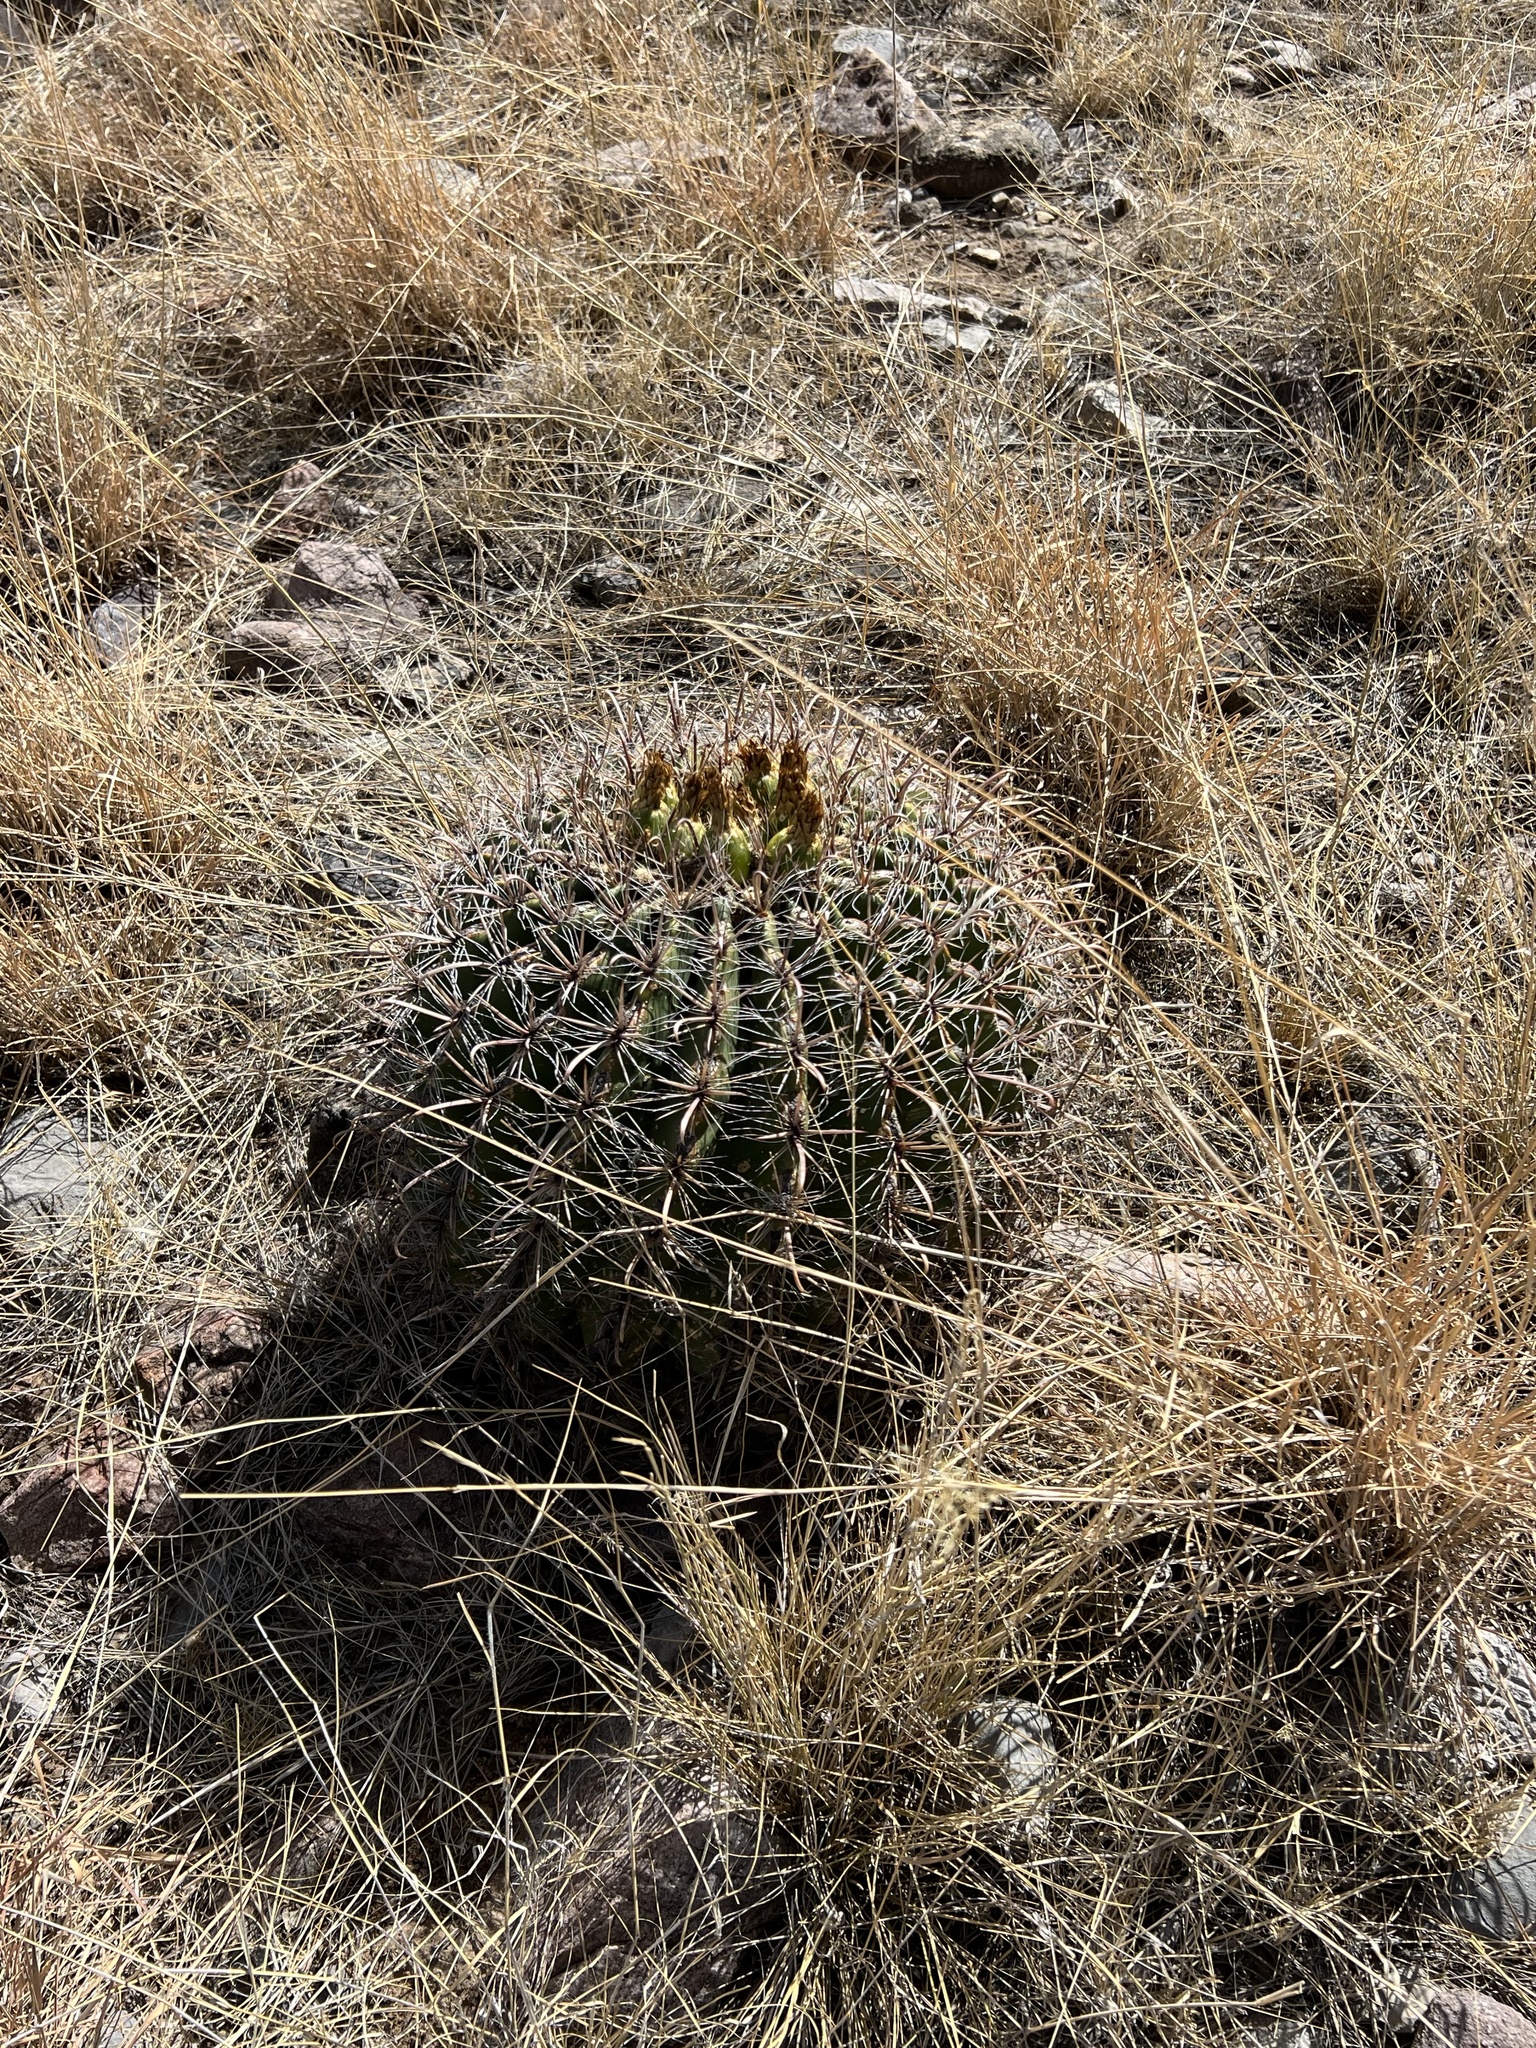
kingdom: Plantae
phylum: Tracheophyta
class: Magnoliopsida
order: Caryophyllales
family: Cactaceae
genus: Ferocactus
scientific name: Ferocactus wislizeni
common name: Candy barrel cactus
